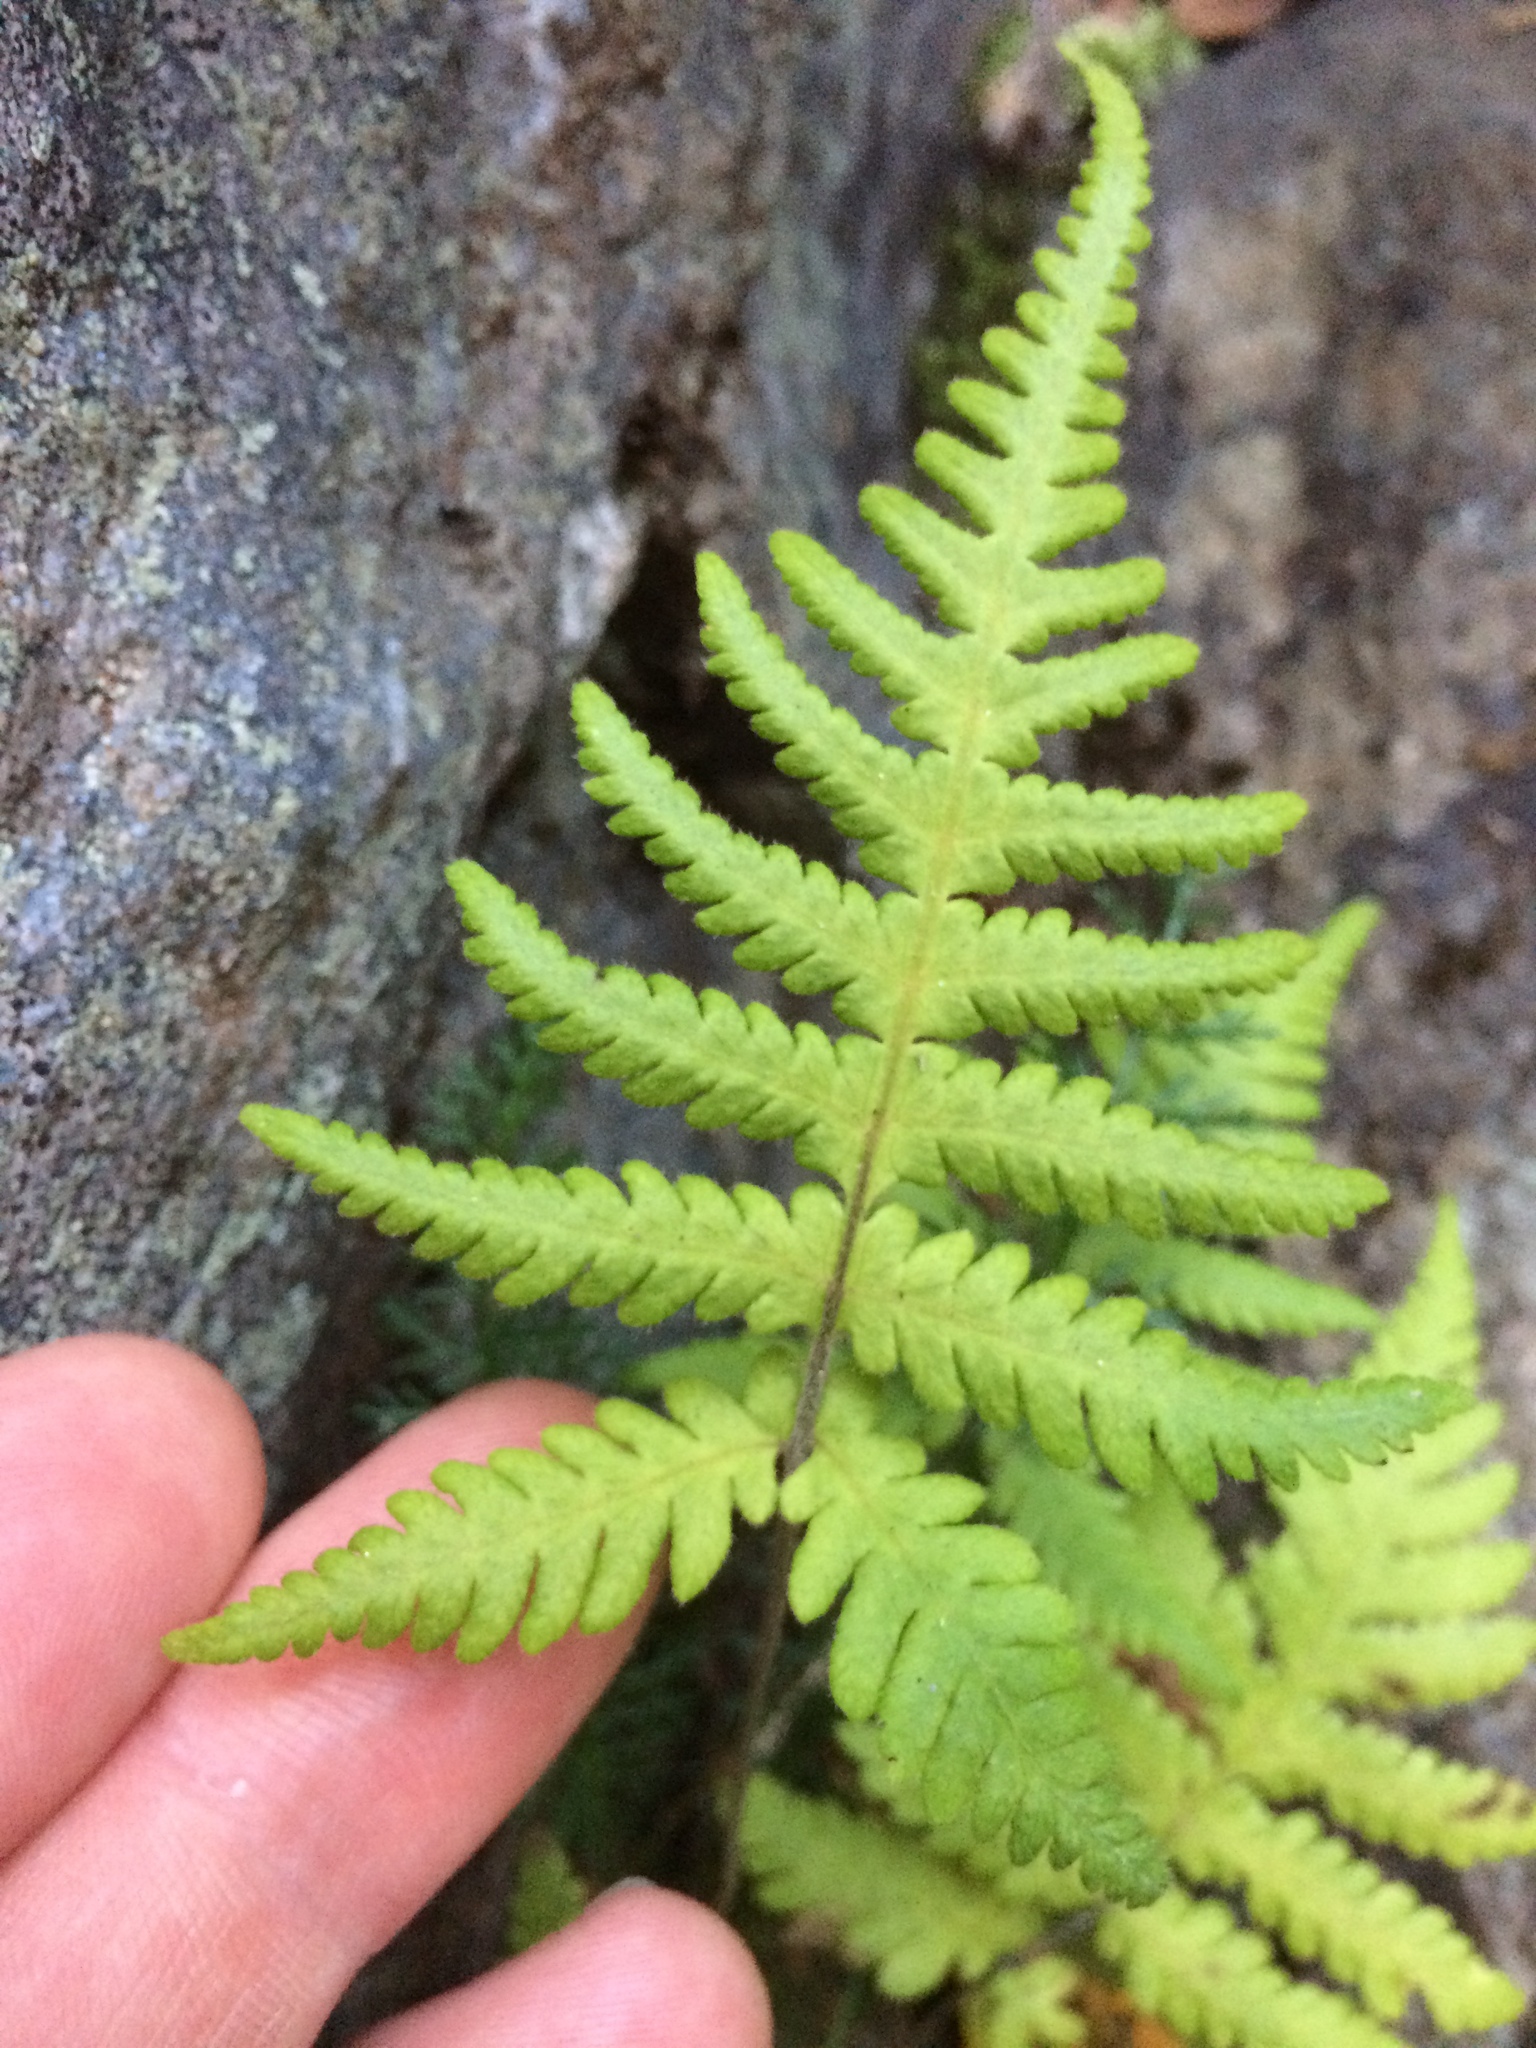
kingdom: Plantae
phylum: Tracheophyta
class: Polypodiopsida
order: Polypodiales
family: Thelypteridaceae
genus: Phegopteris
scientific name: Phegopteris connectilis
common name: Beech fern
